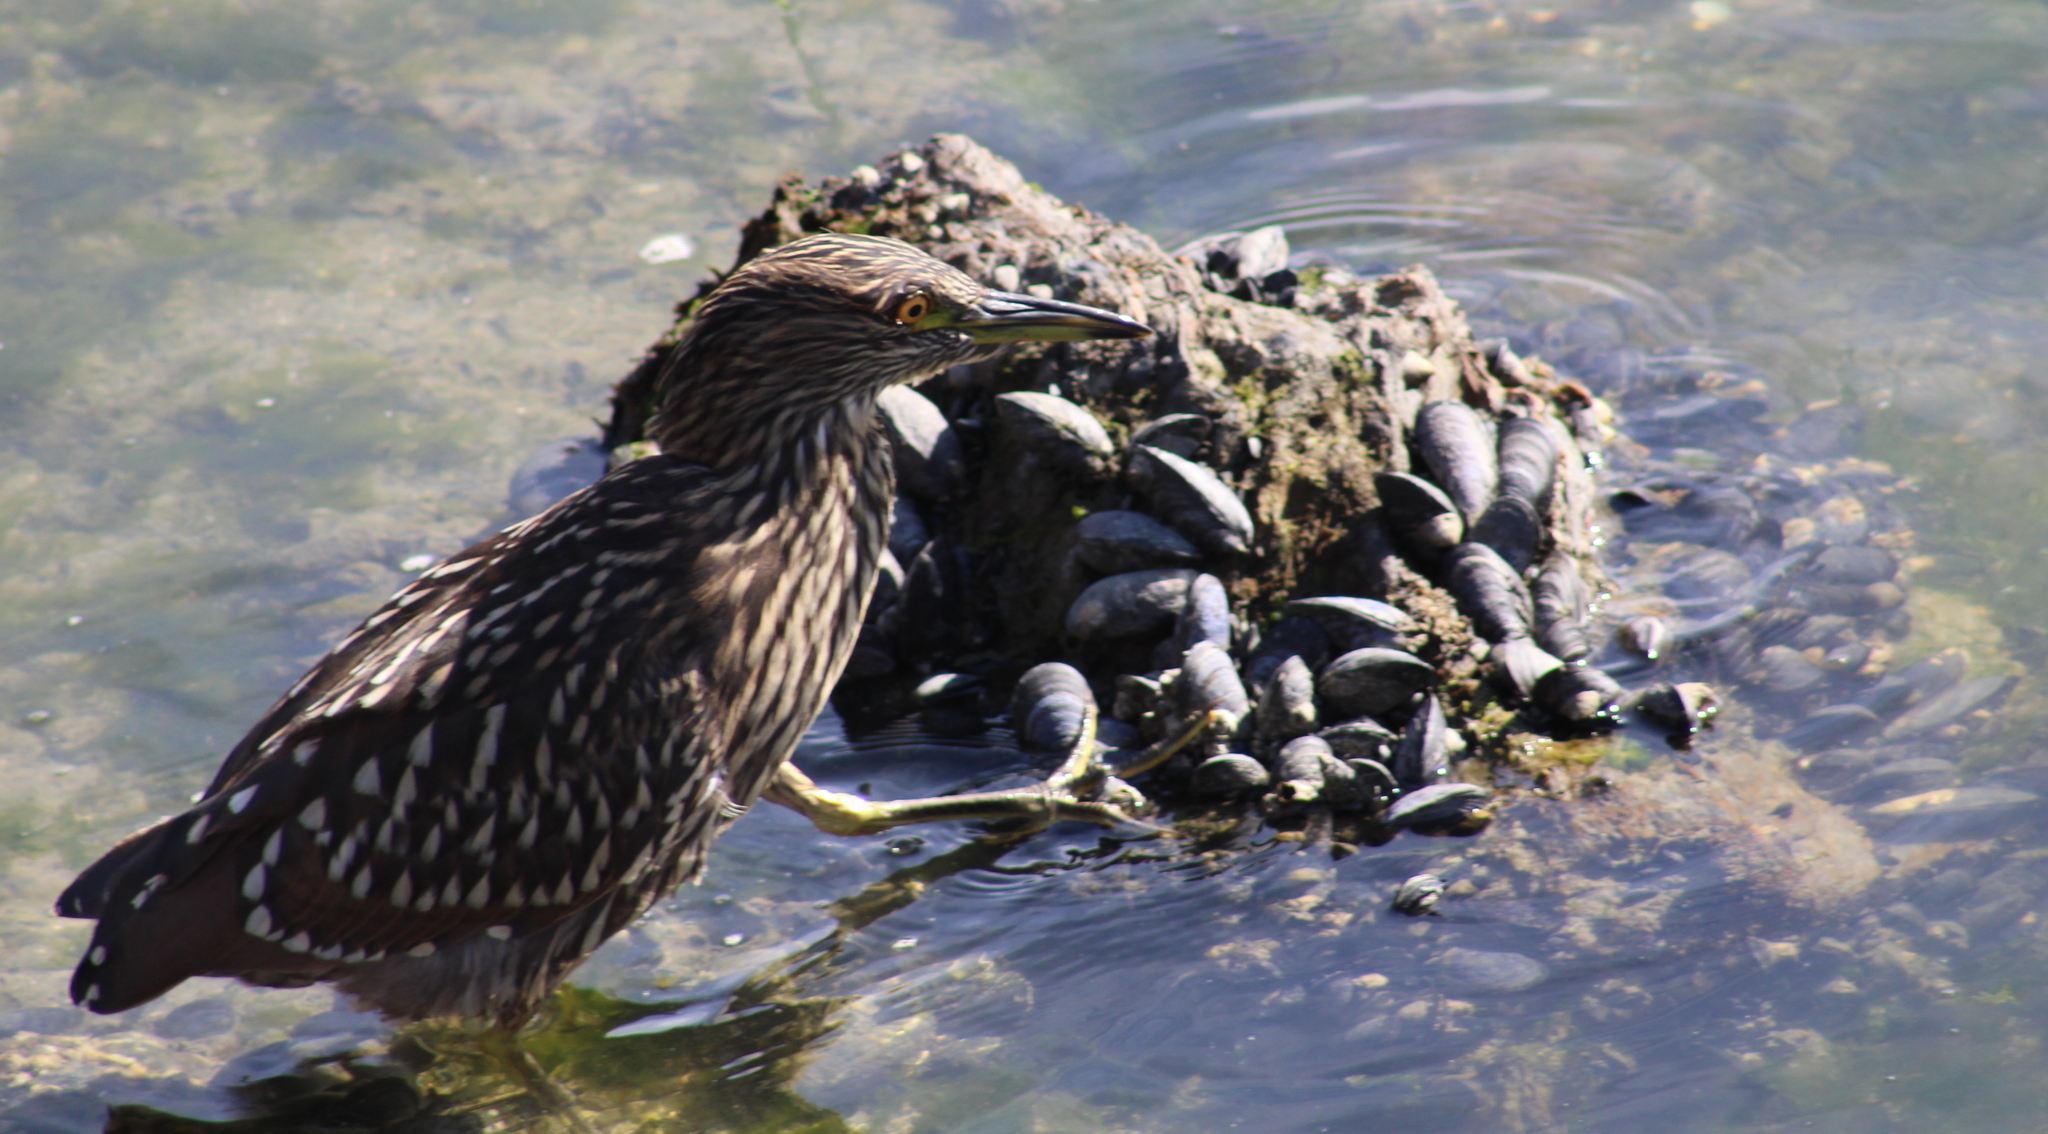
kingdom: Animalia
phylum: Chordata
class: Aves
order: Pelecaniformes
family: Ardeidae
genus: Nycticorax
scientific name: Nycticorax nycticorax
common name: Black-crowned night heron
